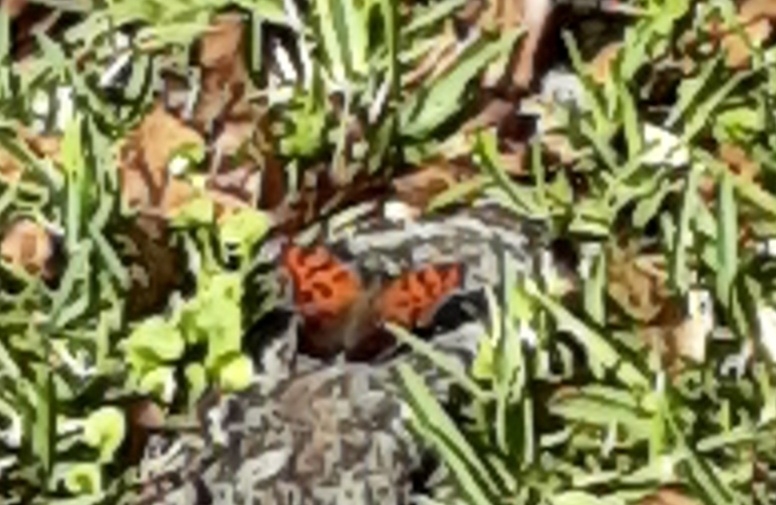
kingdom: Animalia
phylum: Arthropoda
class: Insecta
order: Lepidoptera
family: Nymphalidae
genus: Polygonia
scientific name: Polygonia interrogationis
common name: Question mark
